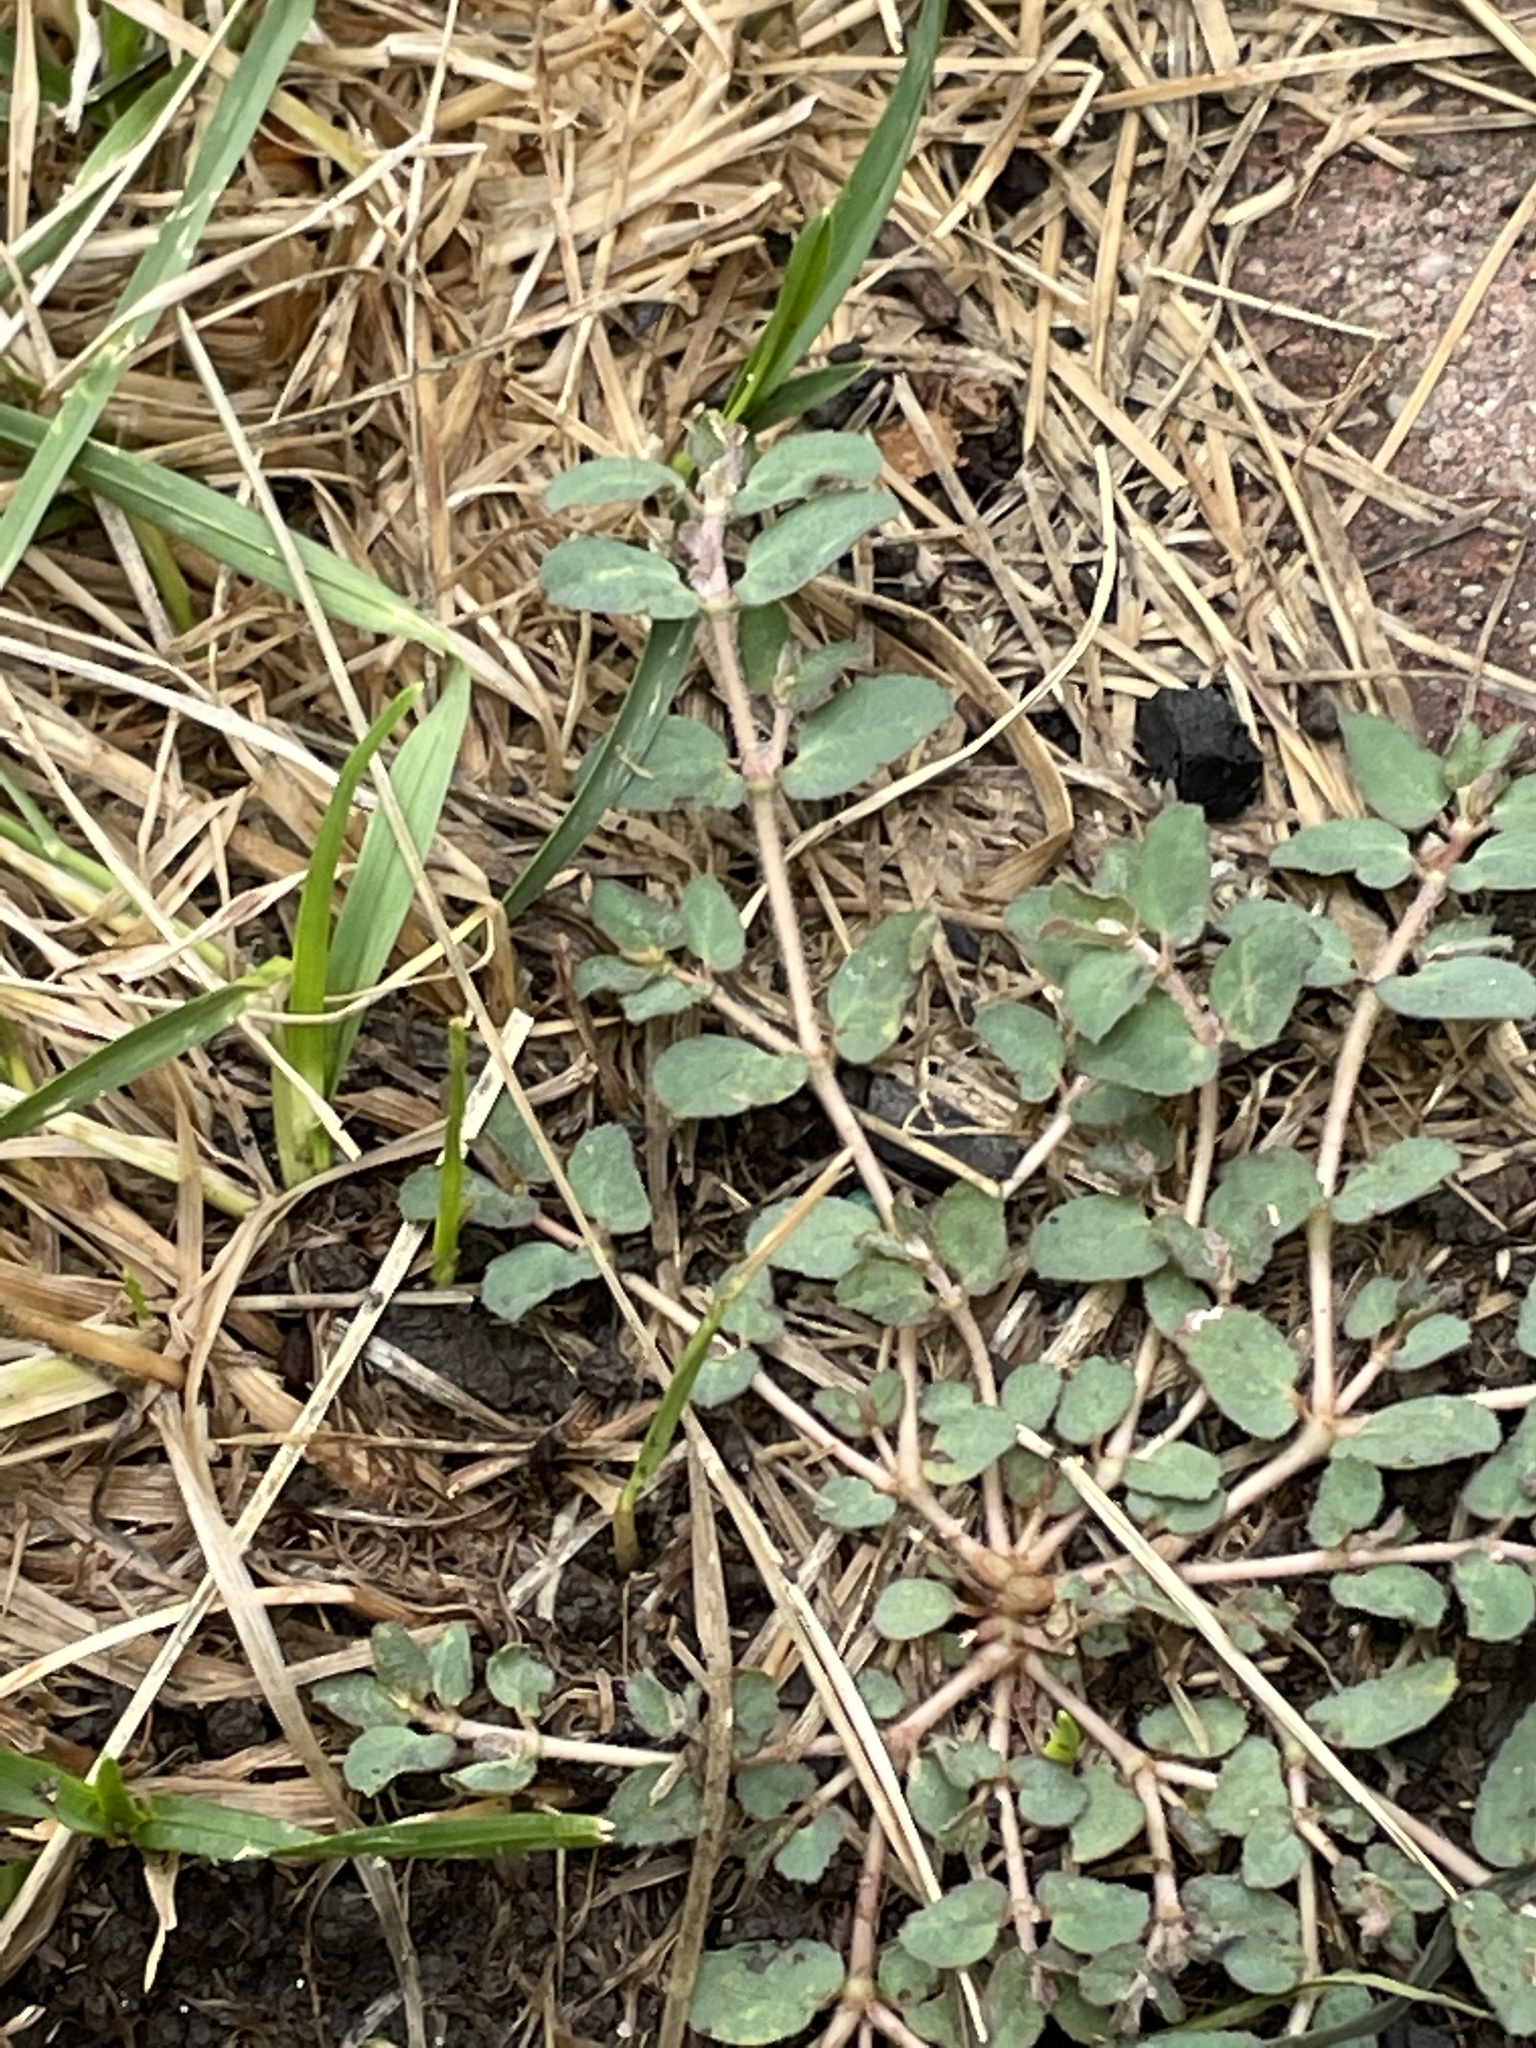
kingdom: Plantae
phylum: Tracheophyta
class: Magnoliopsida
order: Malpighiales
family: Euphorbiaceae
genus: Euphorbia
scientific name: Euphorbia maculata
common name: Spotted spurge
